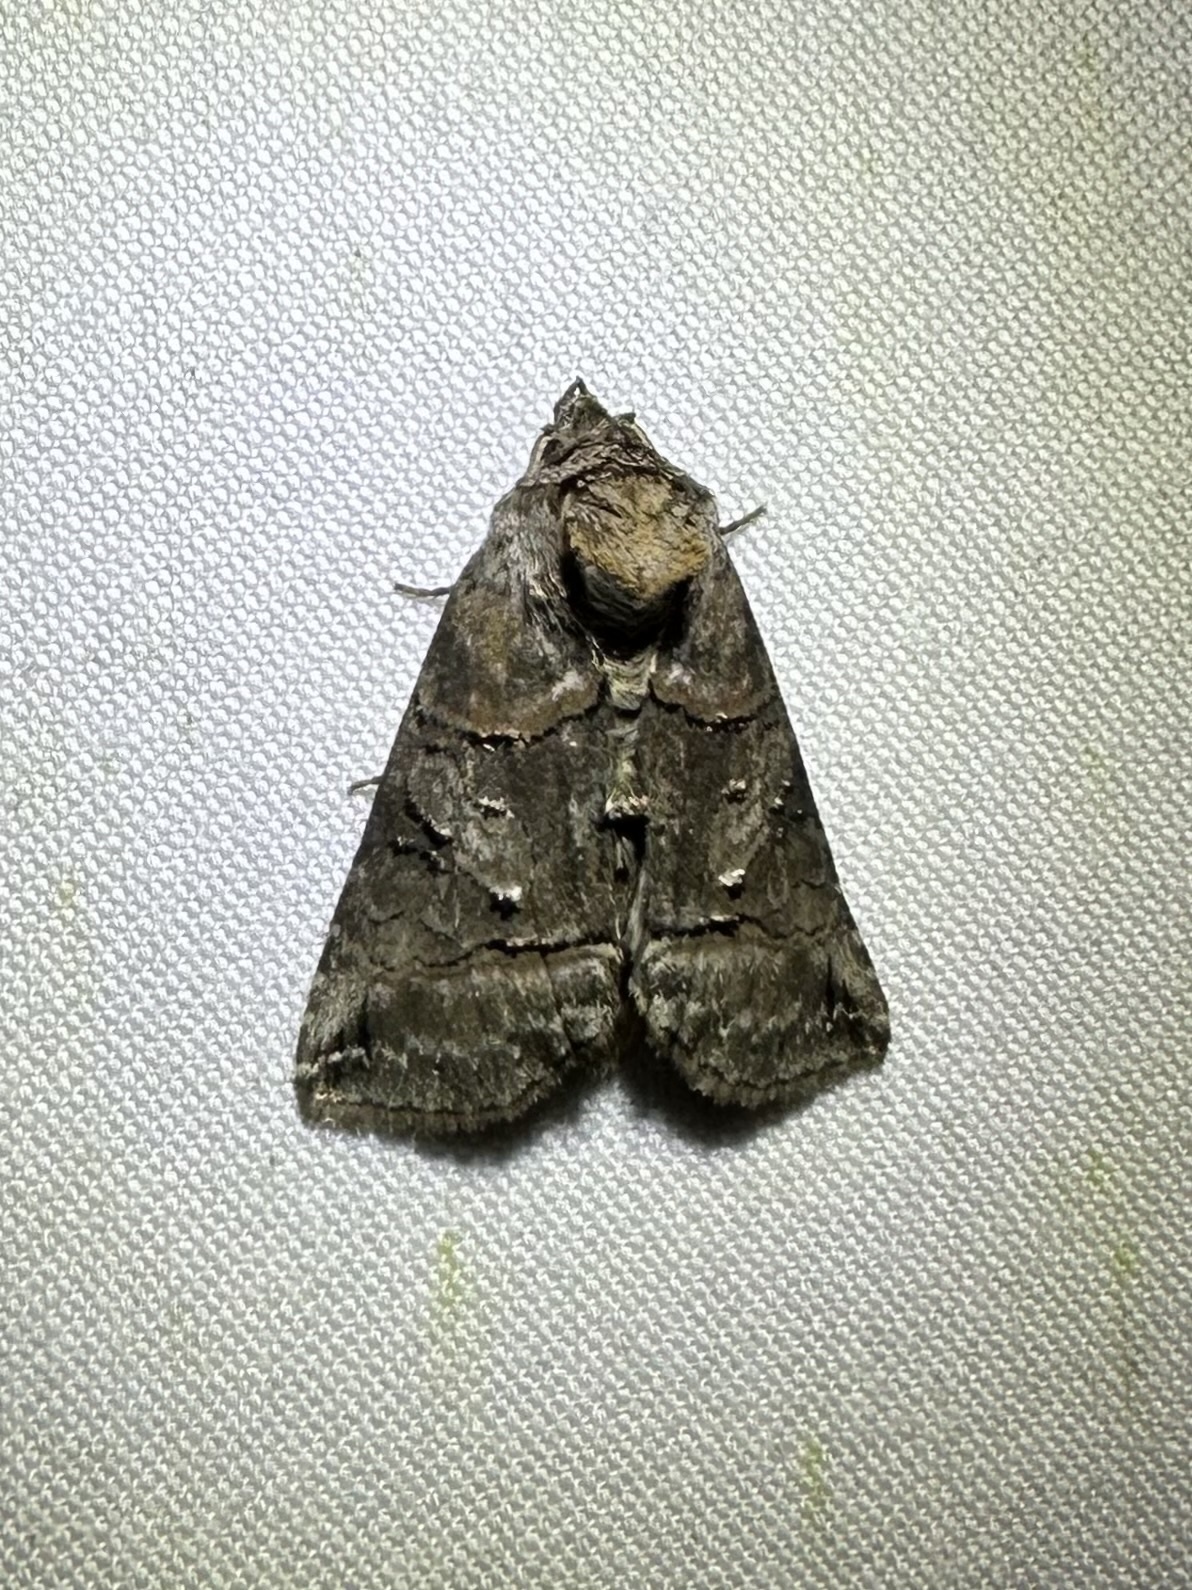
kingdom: Animalia
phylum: Arthropoda
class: Insecta
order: Lepidoptera
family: Noctuidae
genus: Abrostola
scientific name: Abrostola urentis
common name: Spectacled nettle moth
